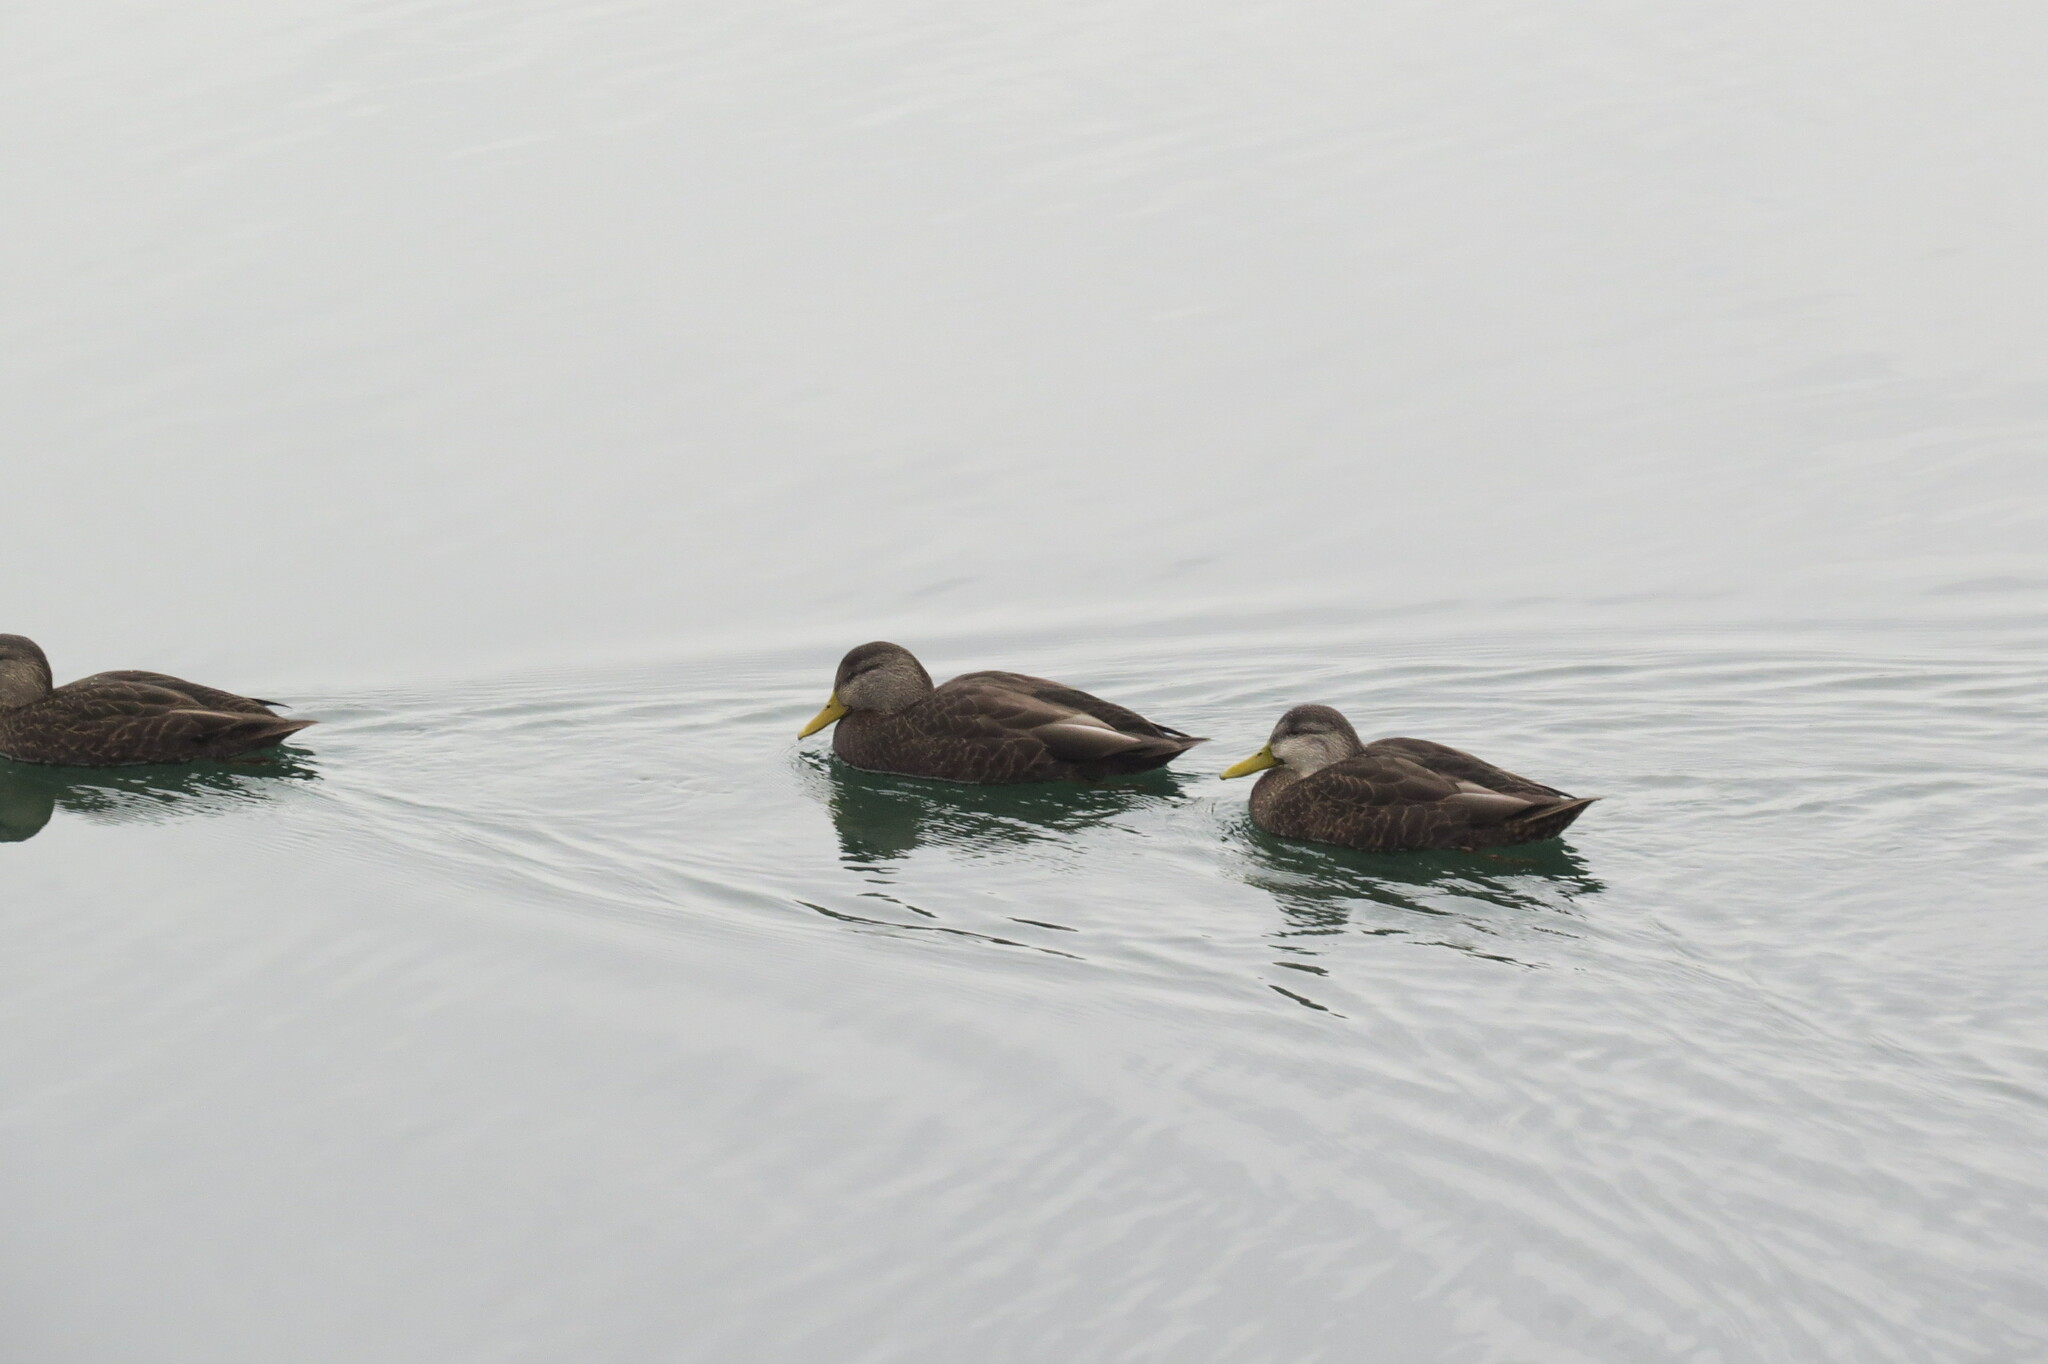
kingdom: Animalia
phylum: Chordata
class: Aves
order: Anseriformes
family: Anatidae
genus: Anas
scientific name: Anas rubripes
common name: American black duck
